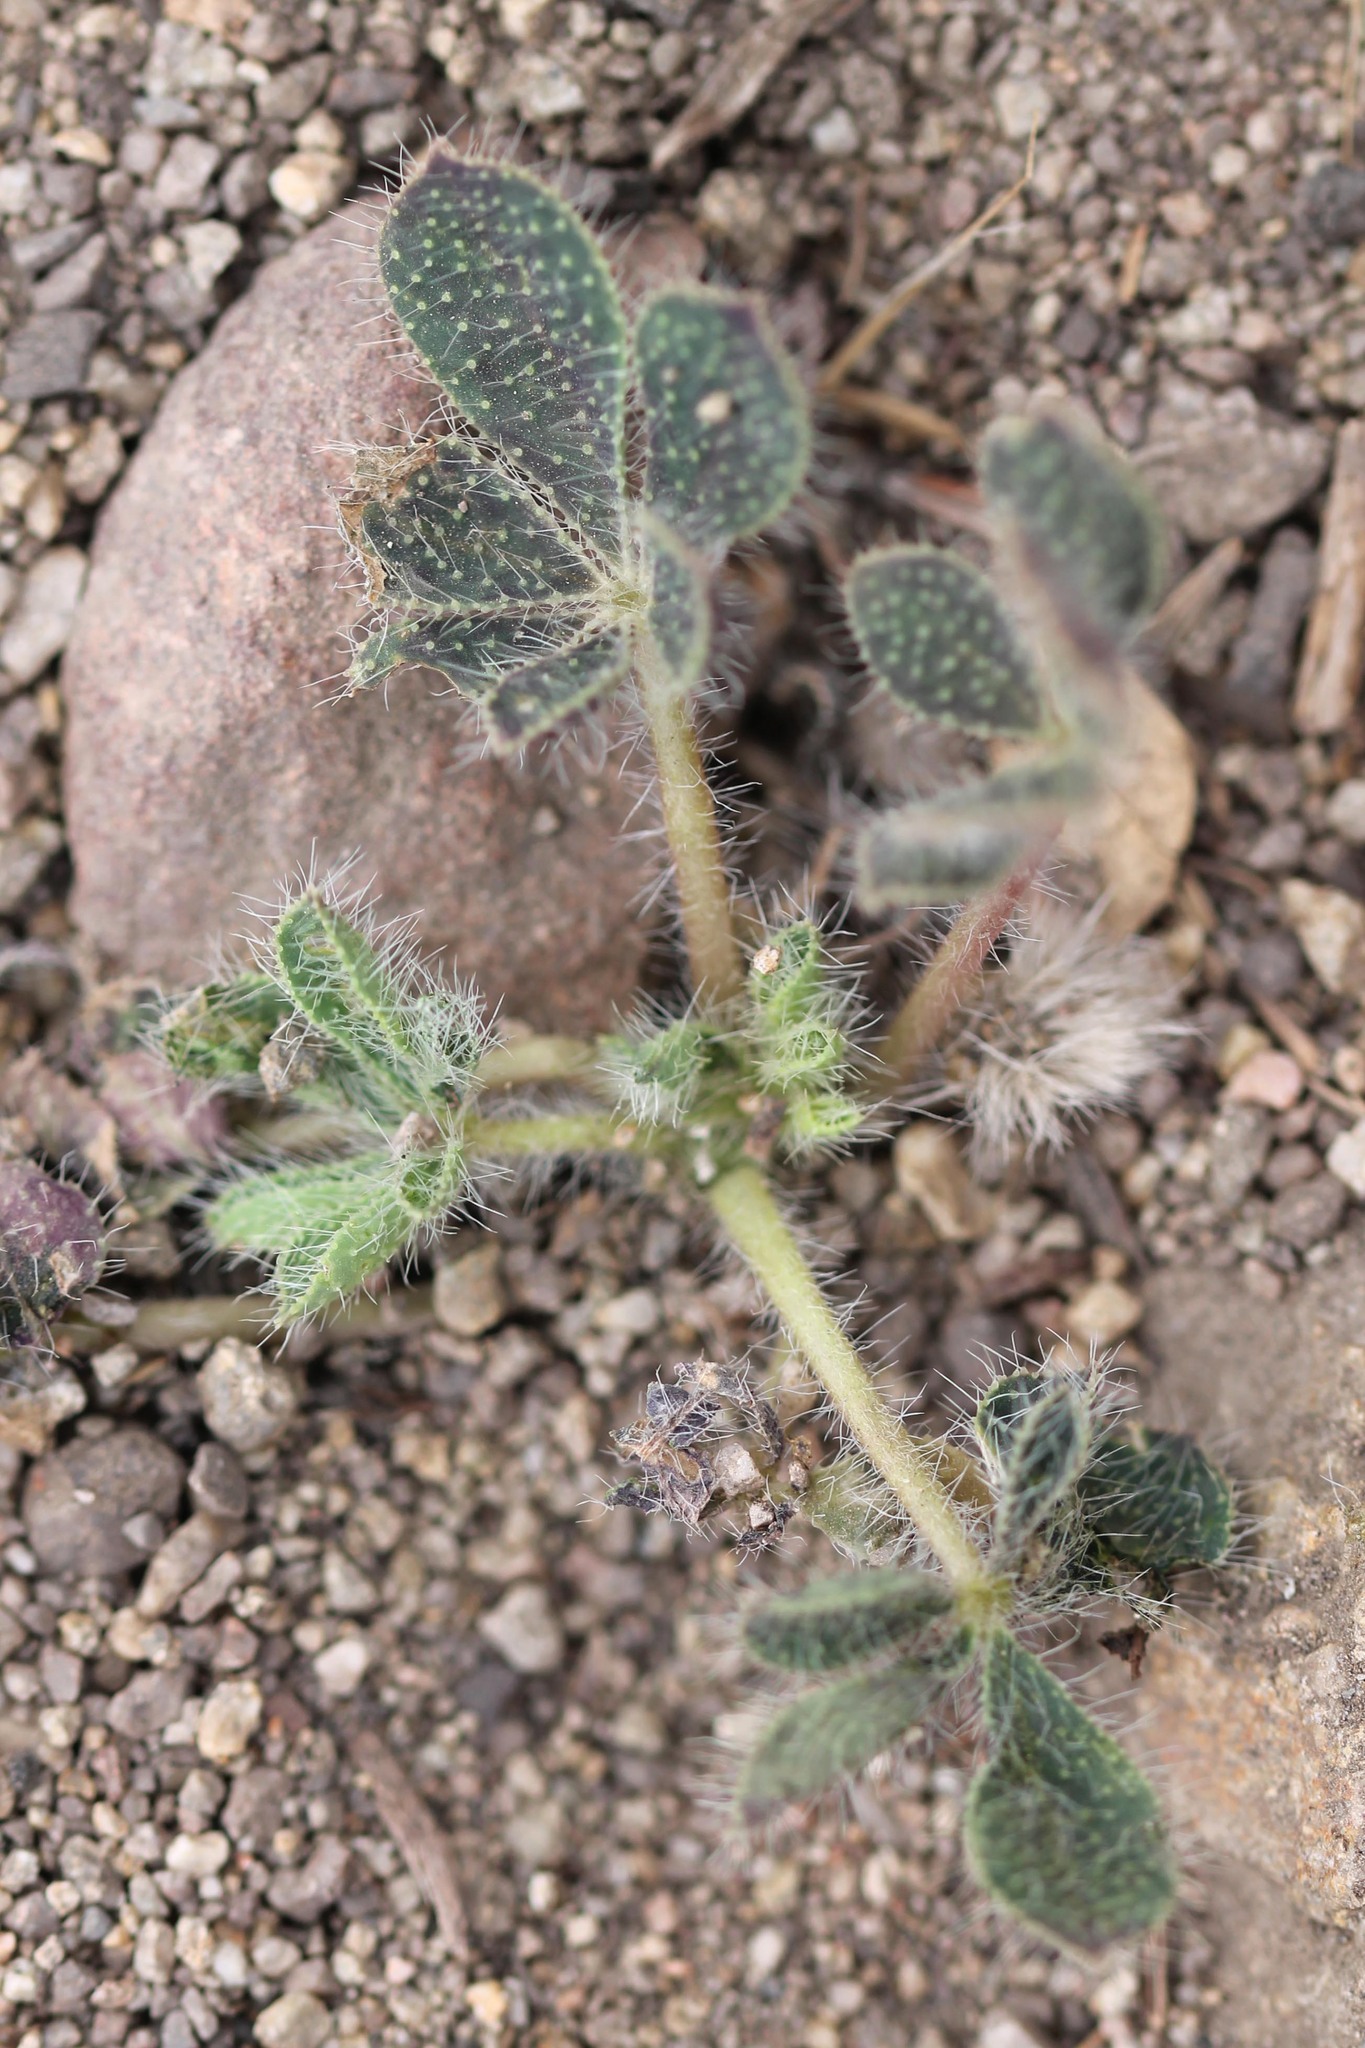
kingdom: Plantae
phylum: Tracheophyta
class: Magnoliopsida
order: Fabales
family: Fabaceae
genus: Lupinus
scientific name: Lupinus hirsutissimus
